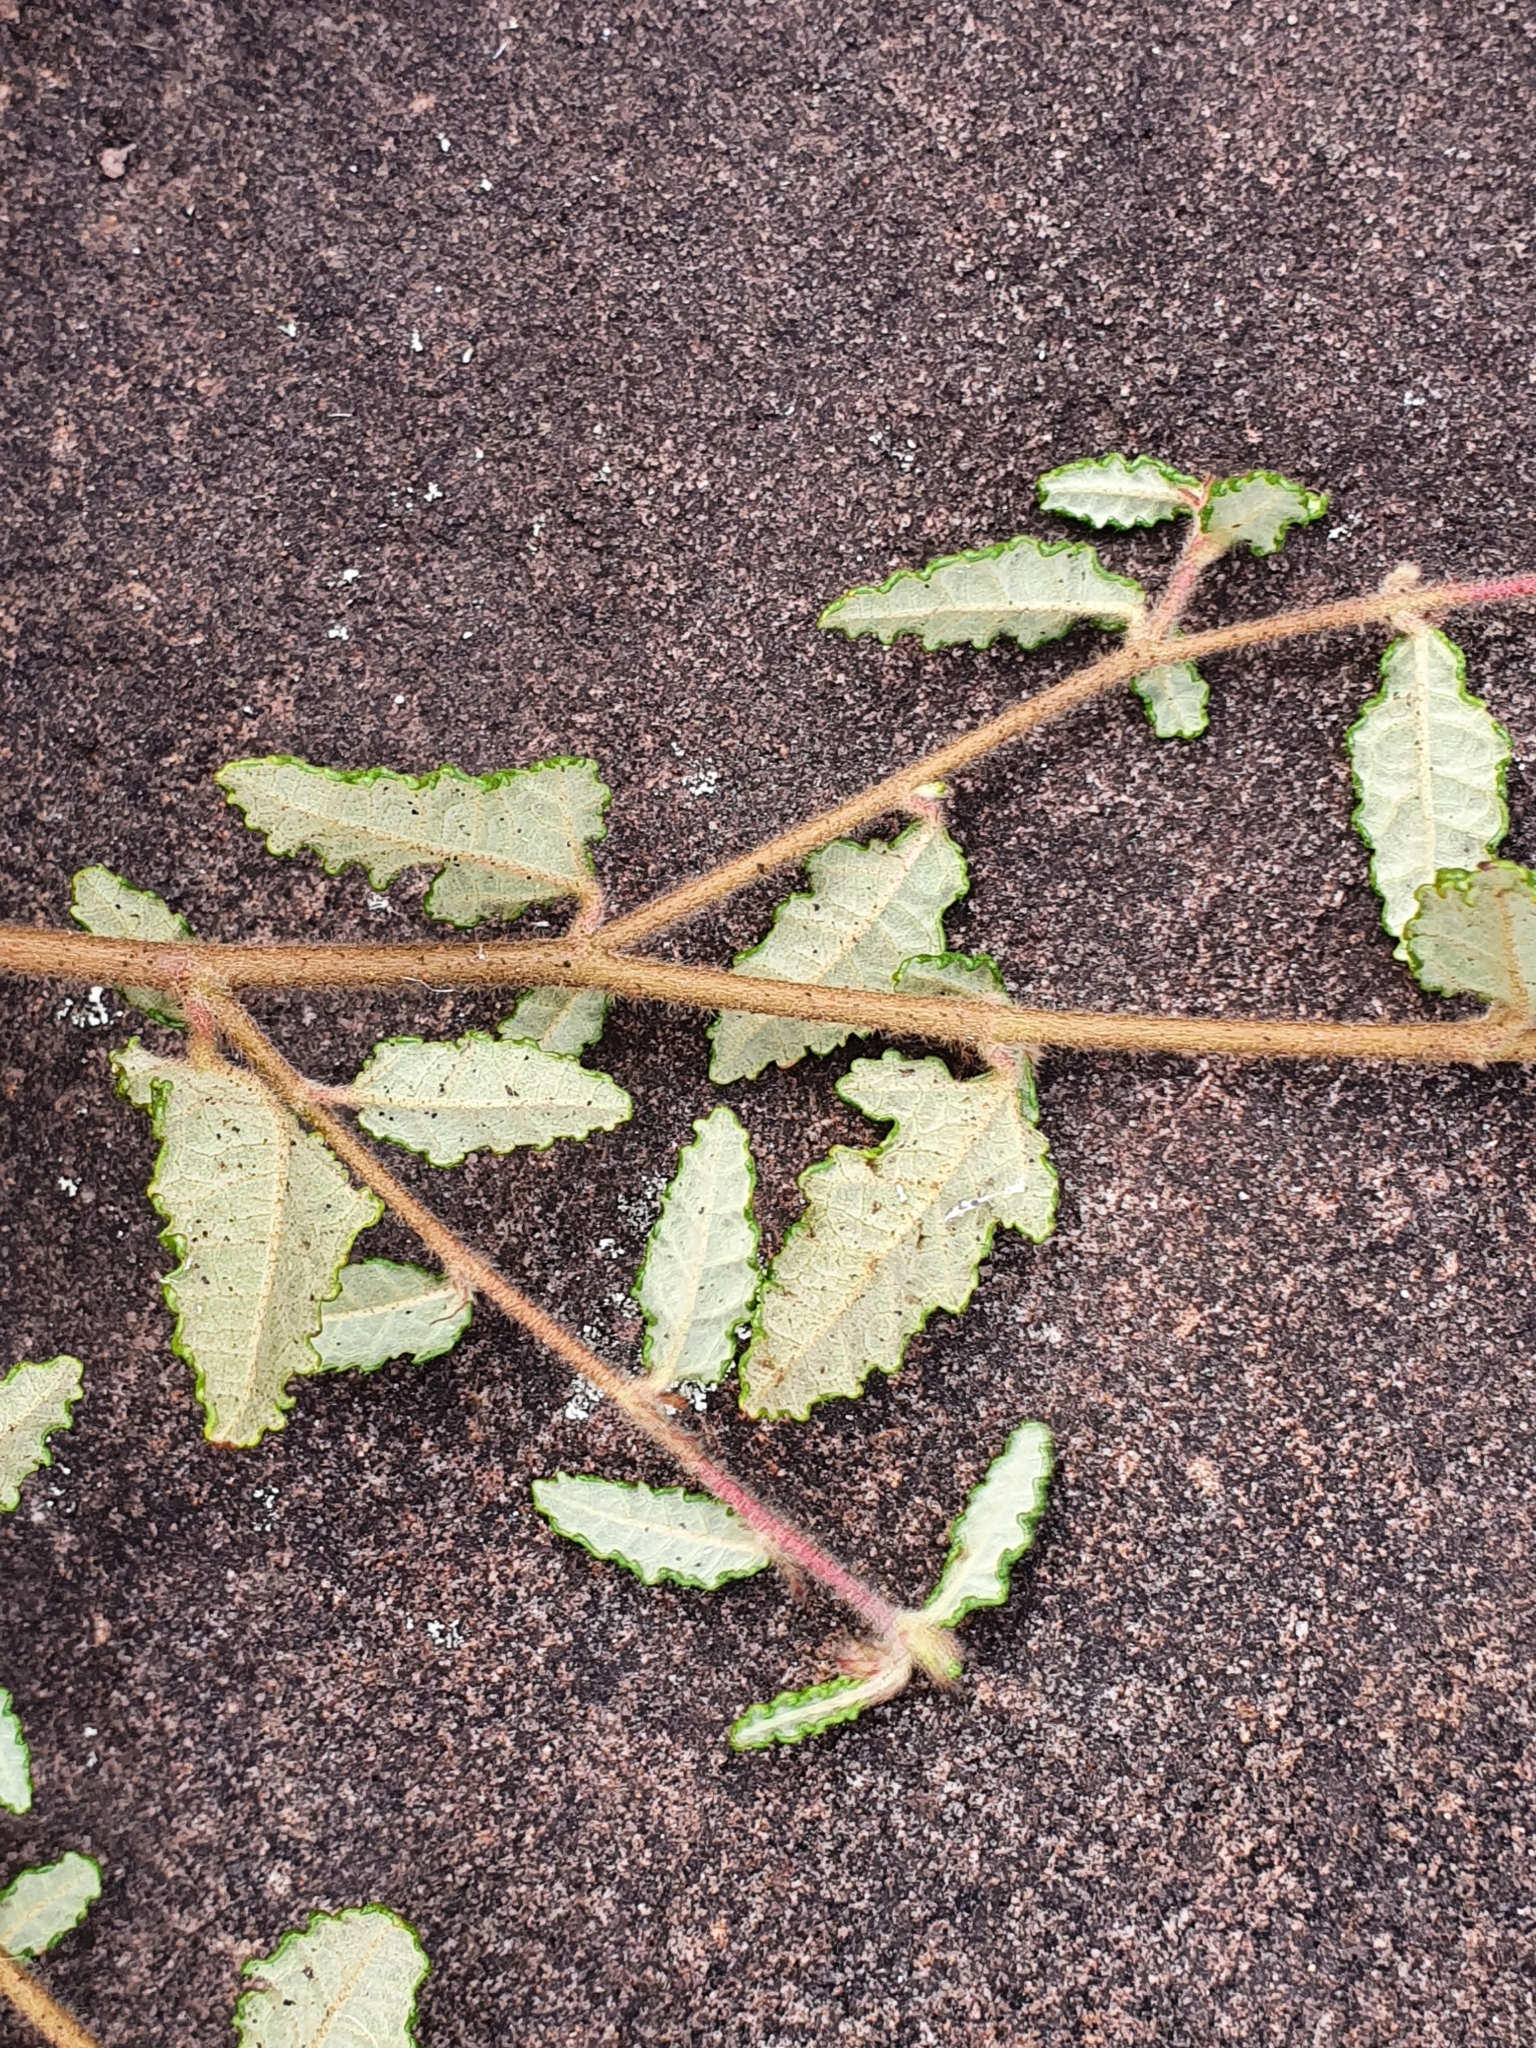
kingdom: Plantae
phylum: Tracheophyta
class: Magnoliopsida
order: Malvales
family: Malvaceae
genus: Commersonia
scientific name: Commersonia hermanniifolia
